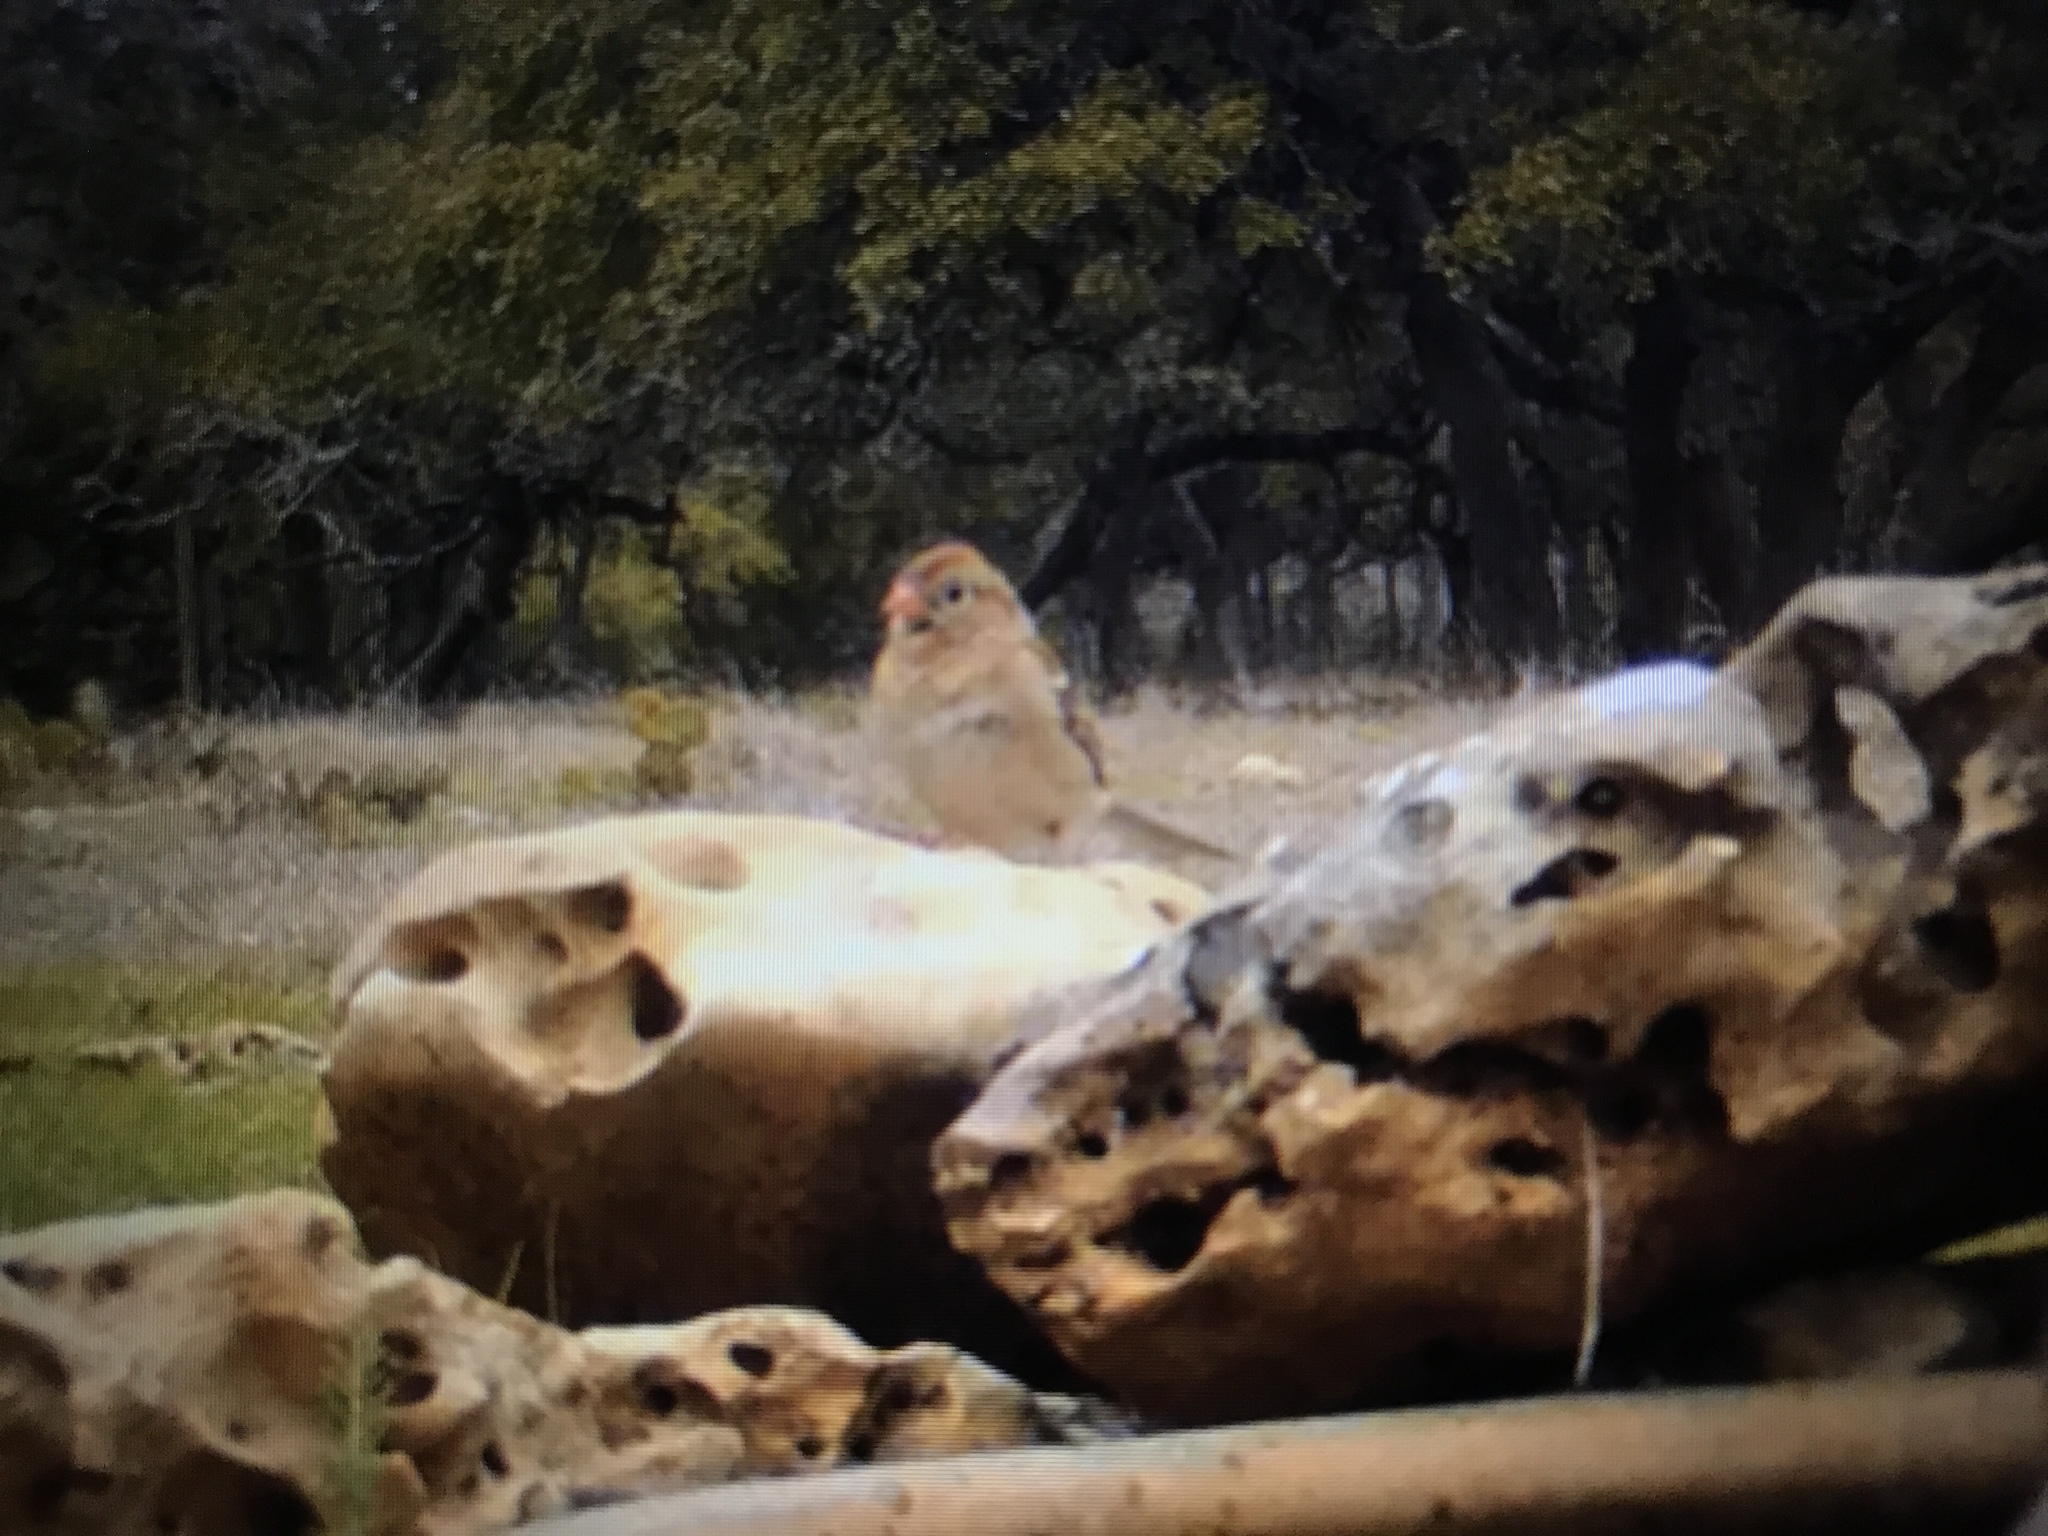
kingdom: Animalia
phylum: Chordata
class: Aves
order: Passeriformes
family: Passerellidae
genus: Spizella
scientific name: Spizella pusilla
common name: Field sparrow
